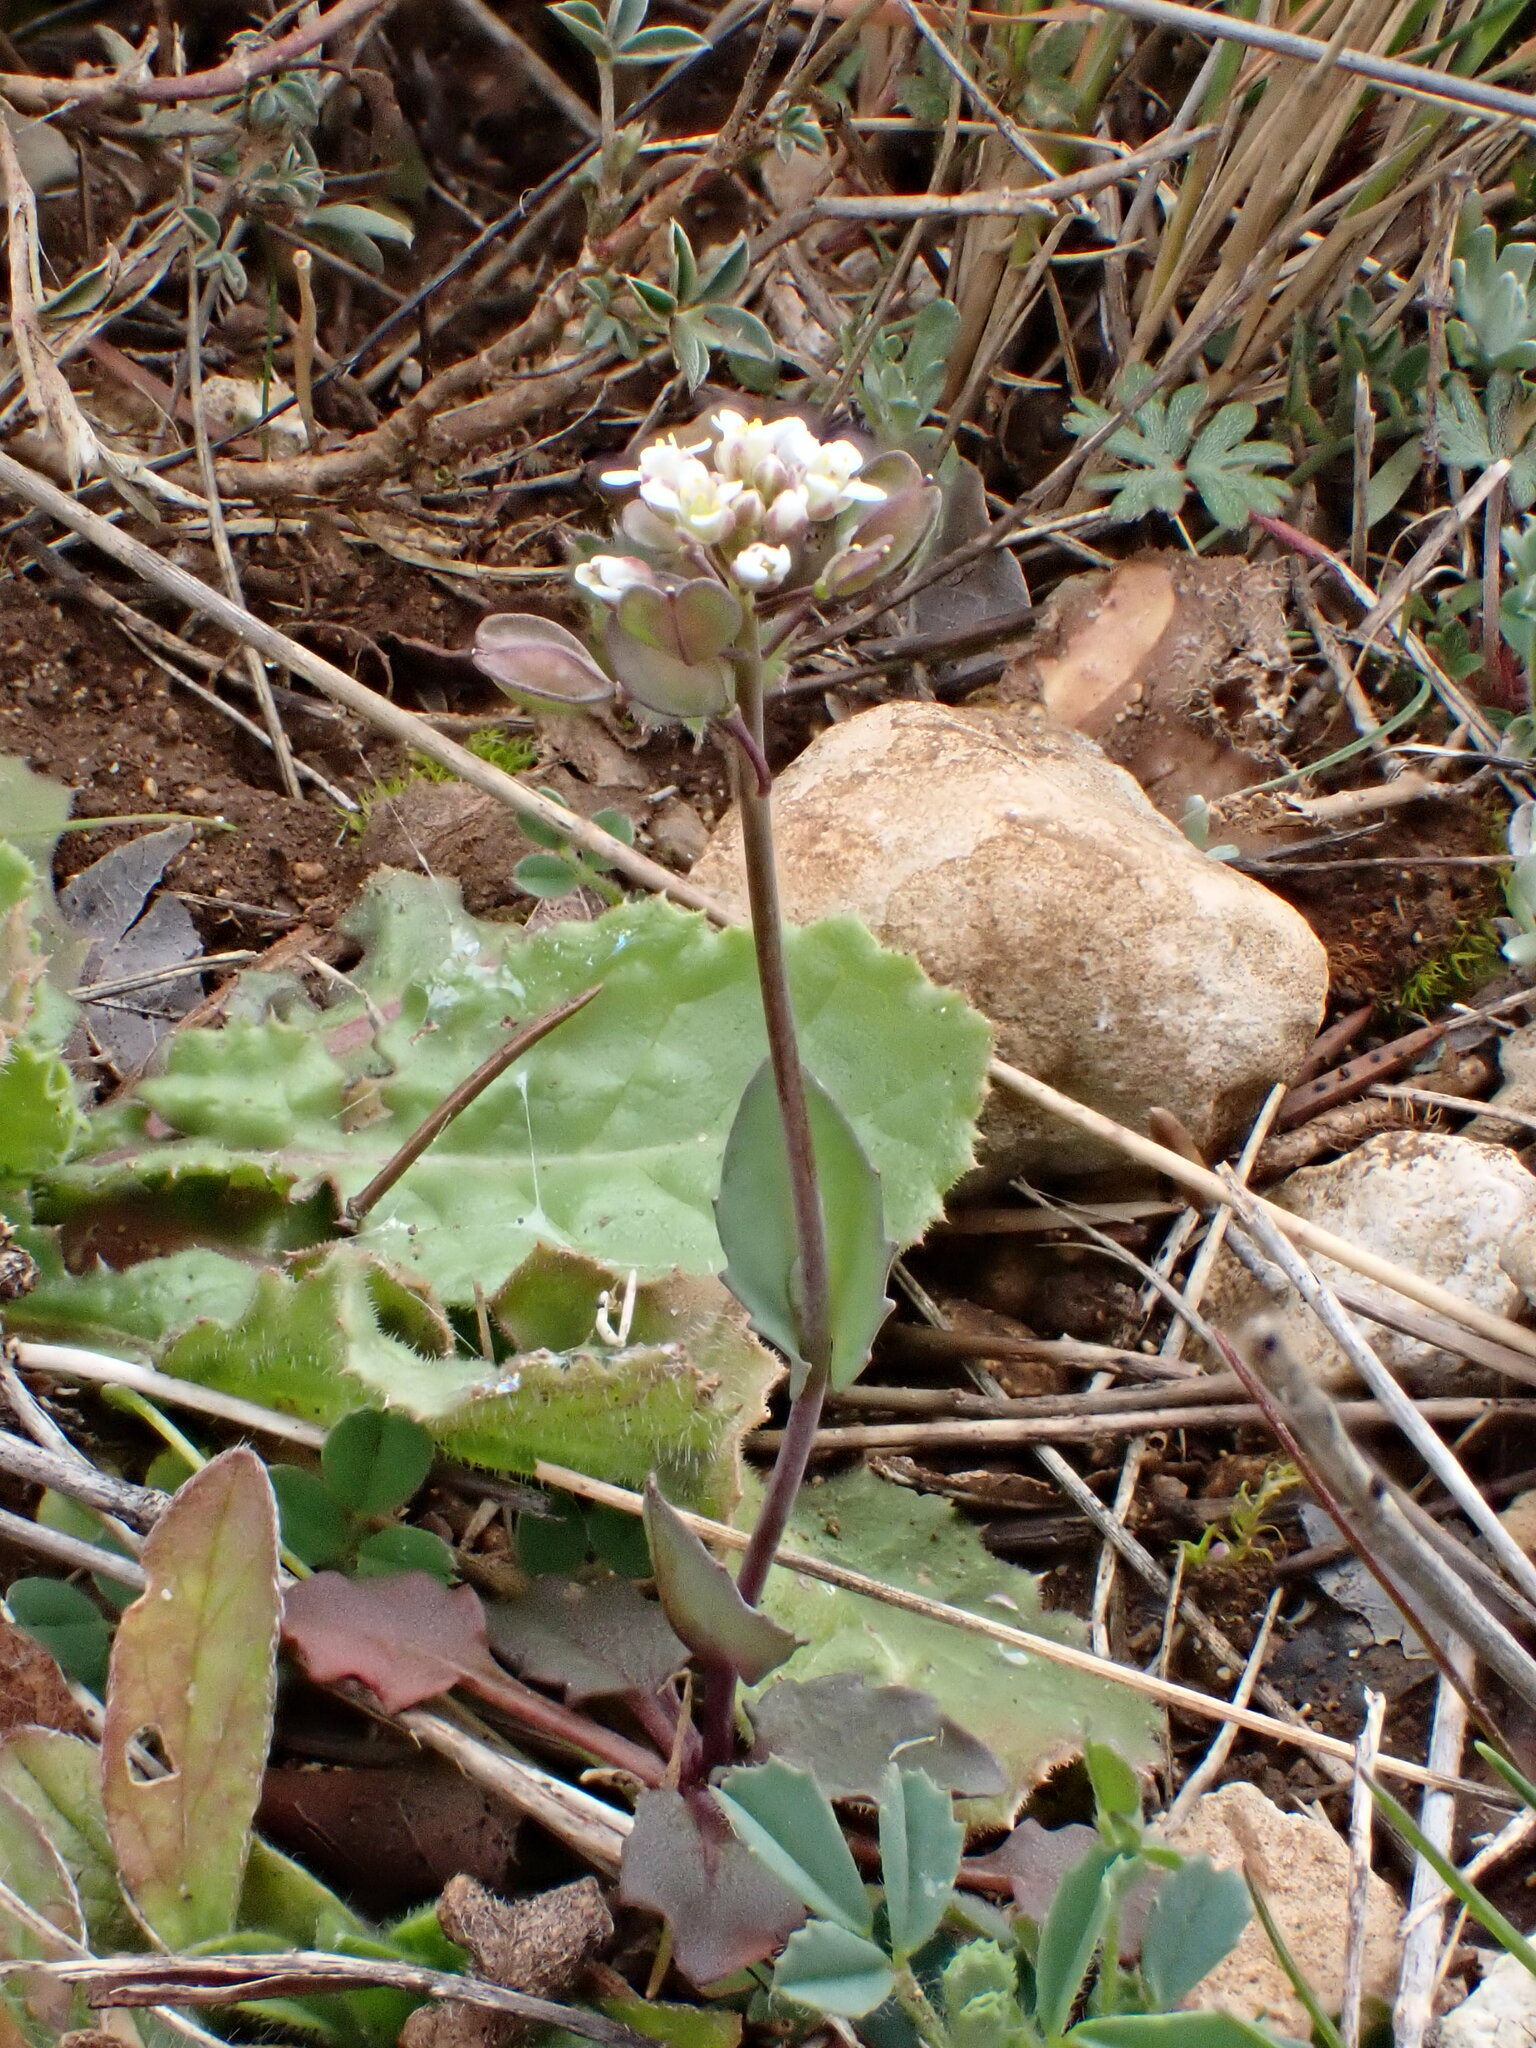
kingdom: Plantae
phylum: Tracheophyta
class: Magnoliopsida
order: Brassicales
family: Brassicaceae
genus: Noccaea
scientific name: Noccaea perfoliata
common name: Perfoliate pennycress
